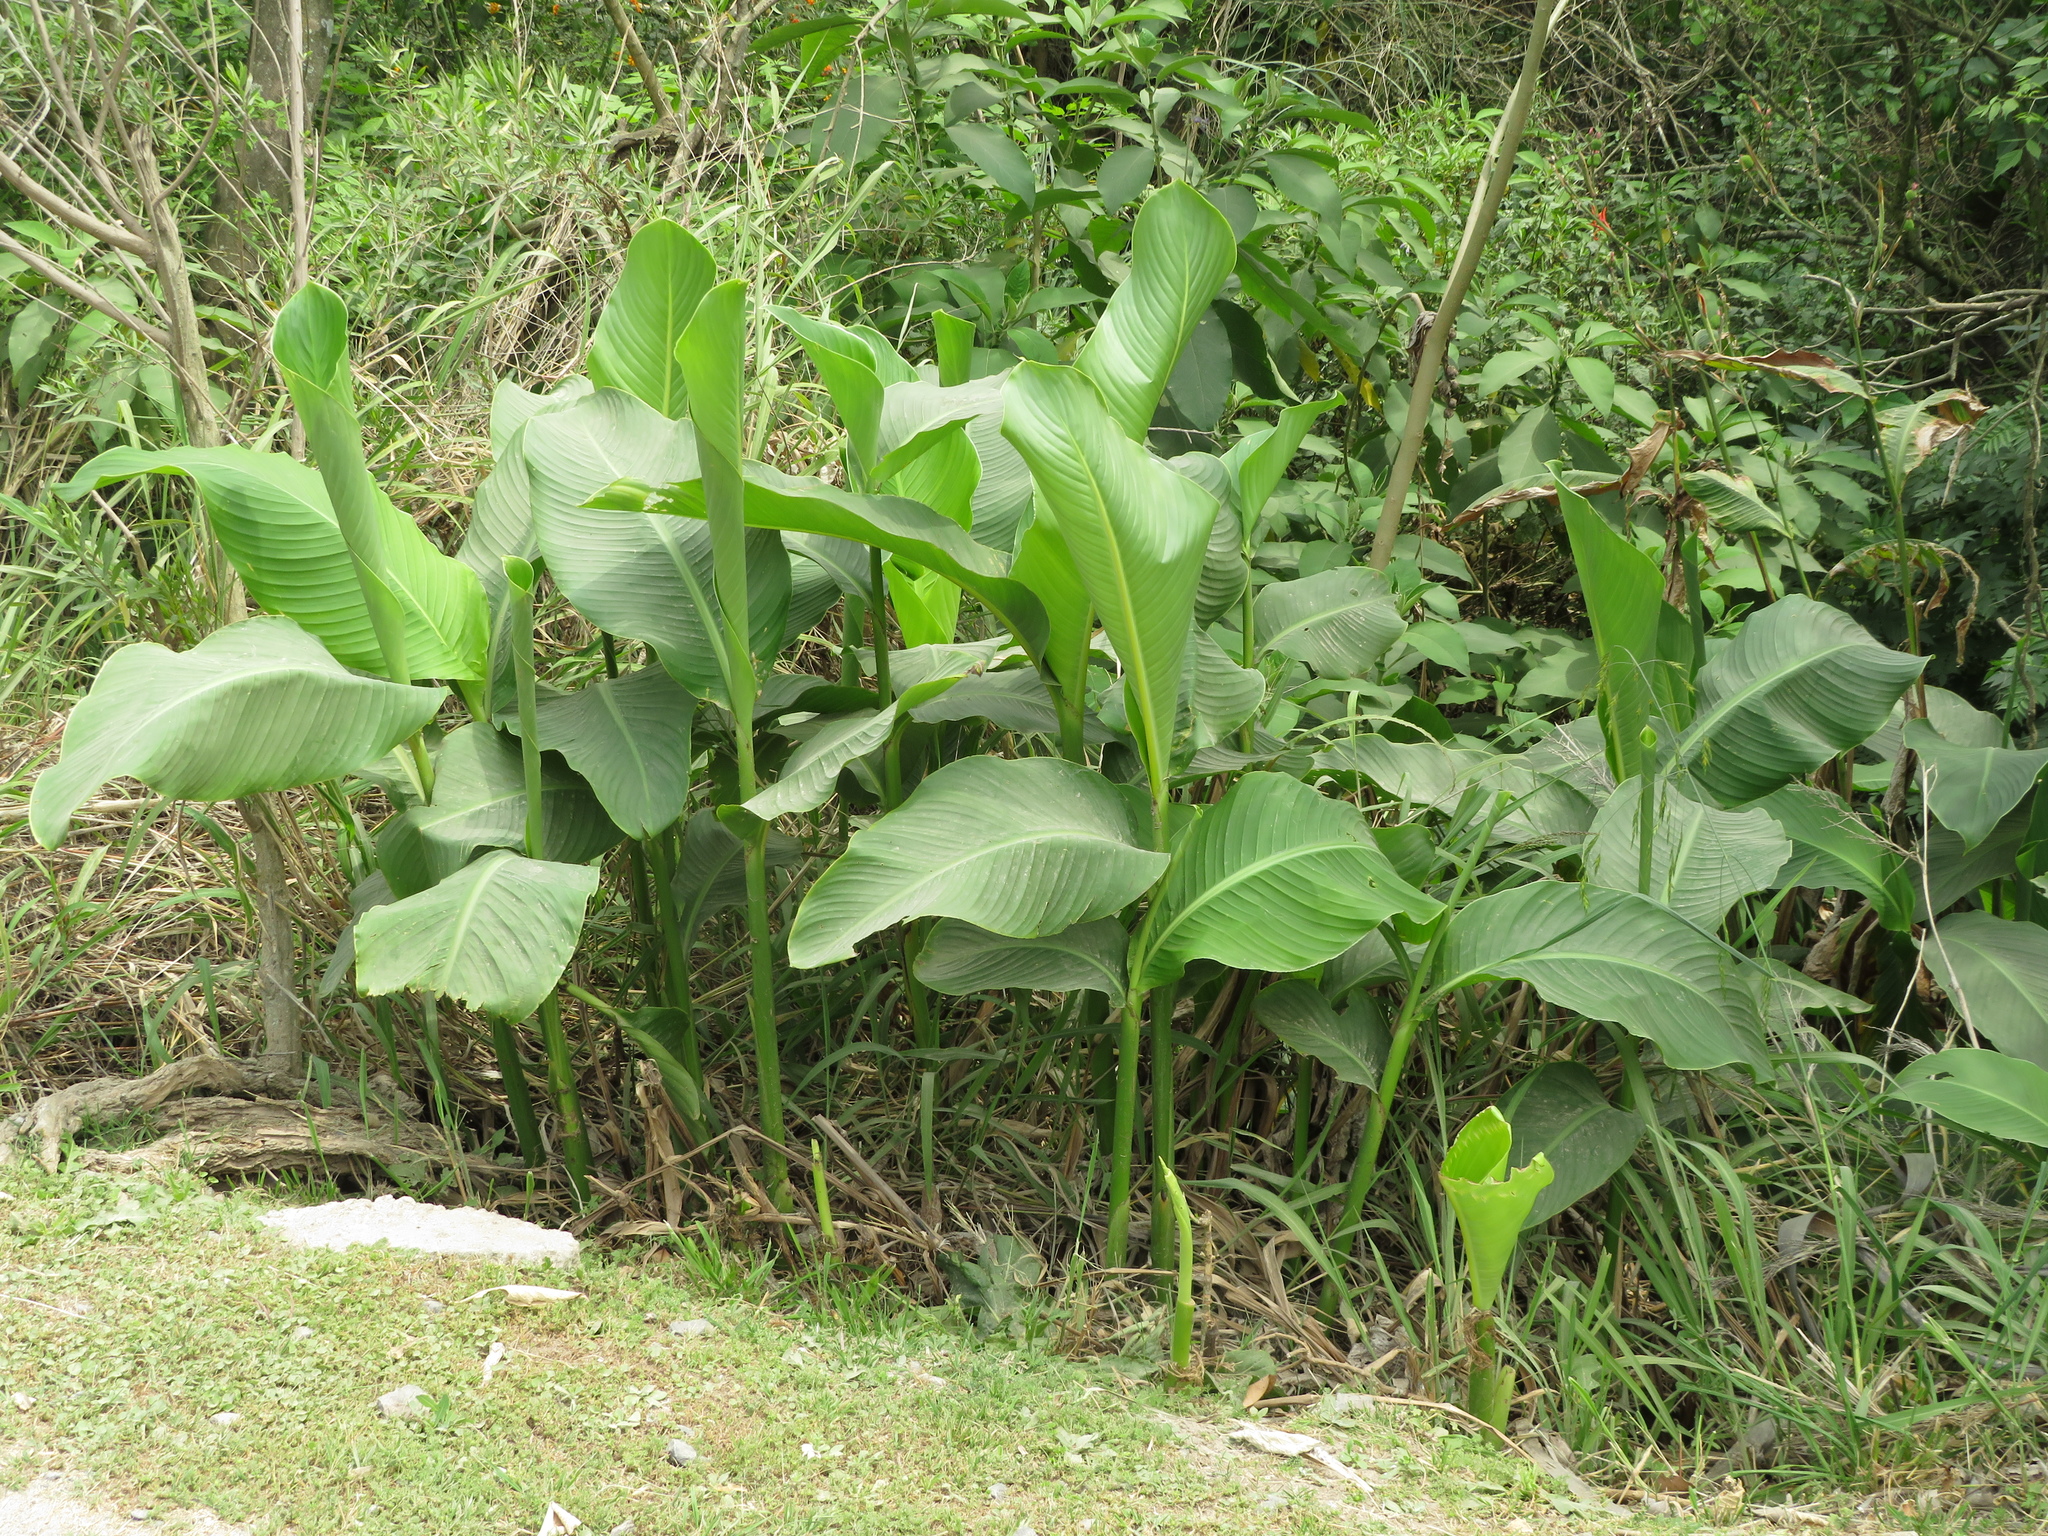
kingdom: Plantae
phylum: Tracheophyta
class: Liliopsida
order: Zingiberales
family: Cannaceae
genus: Canna
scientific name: Canna indica
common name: Indian shot
